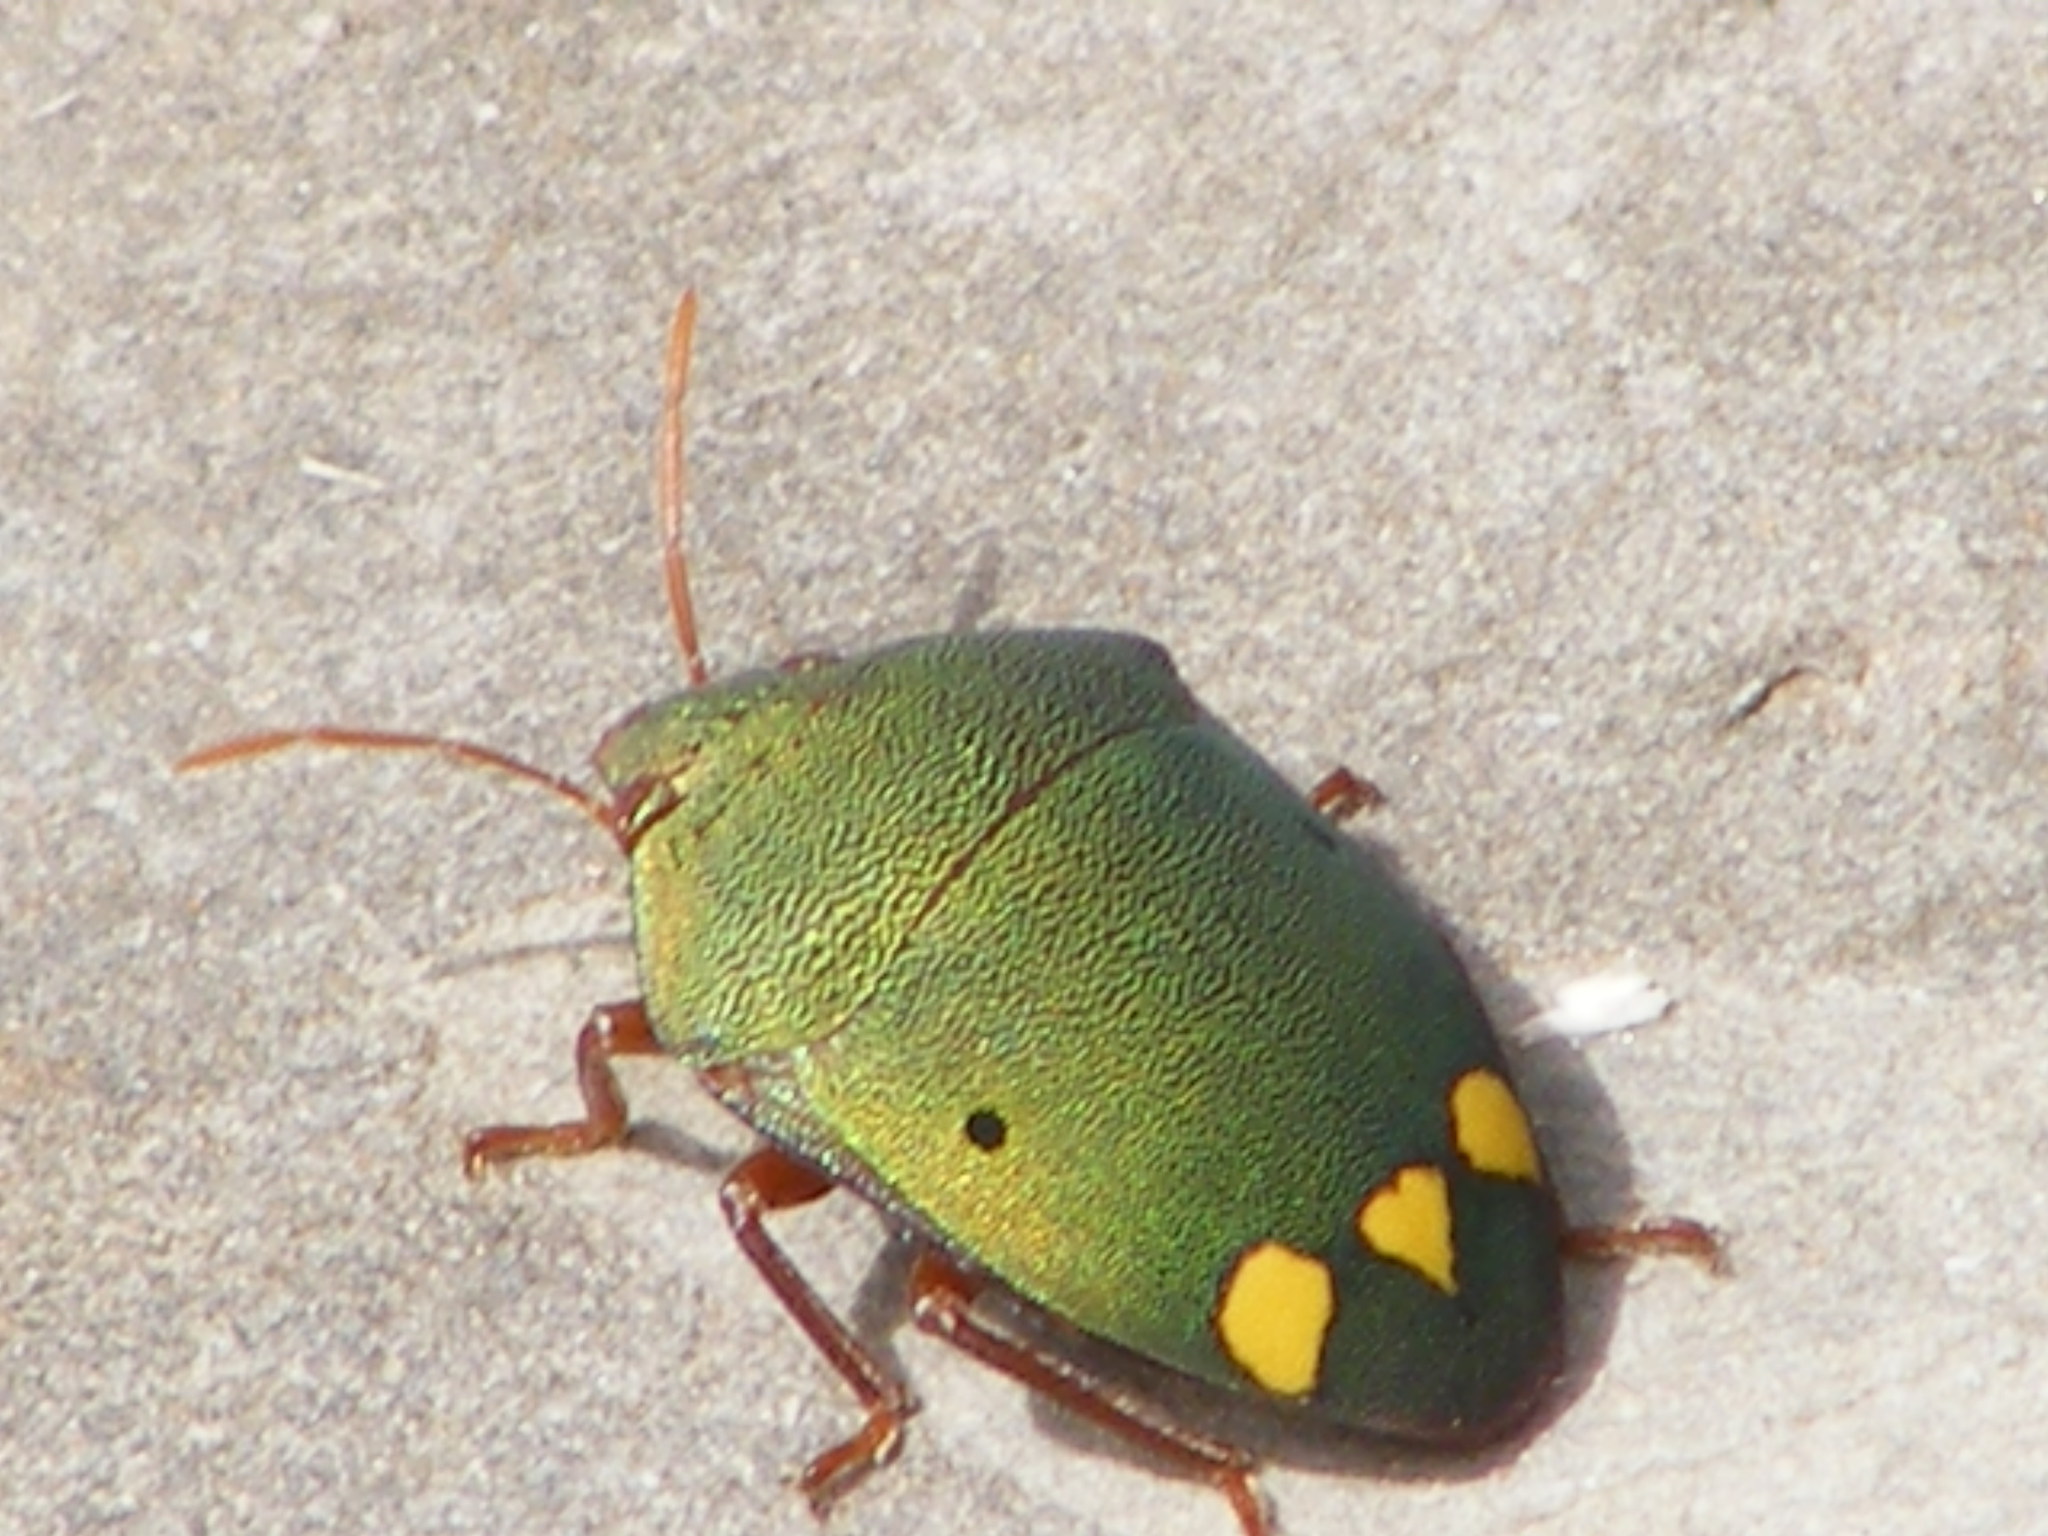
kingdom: Animalia
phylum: Arthropoda
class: Insecta
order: Hemiptera
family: Scutelleridae
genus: Solenosthedium
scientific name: Solenosthedium
